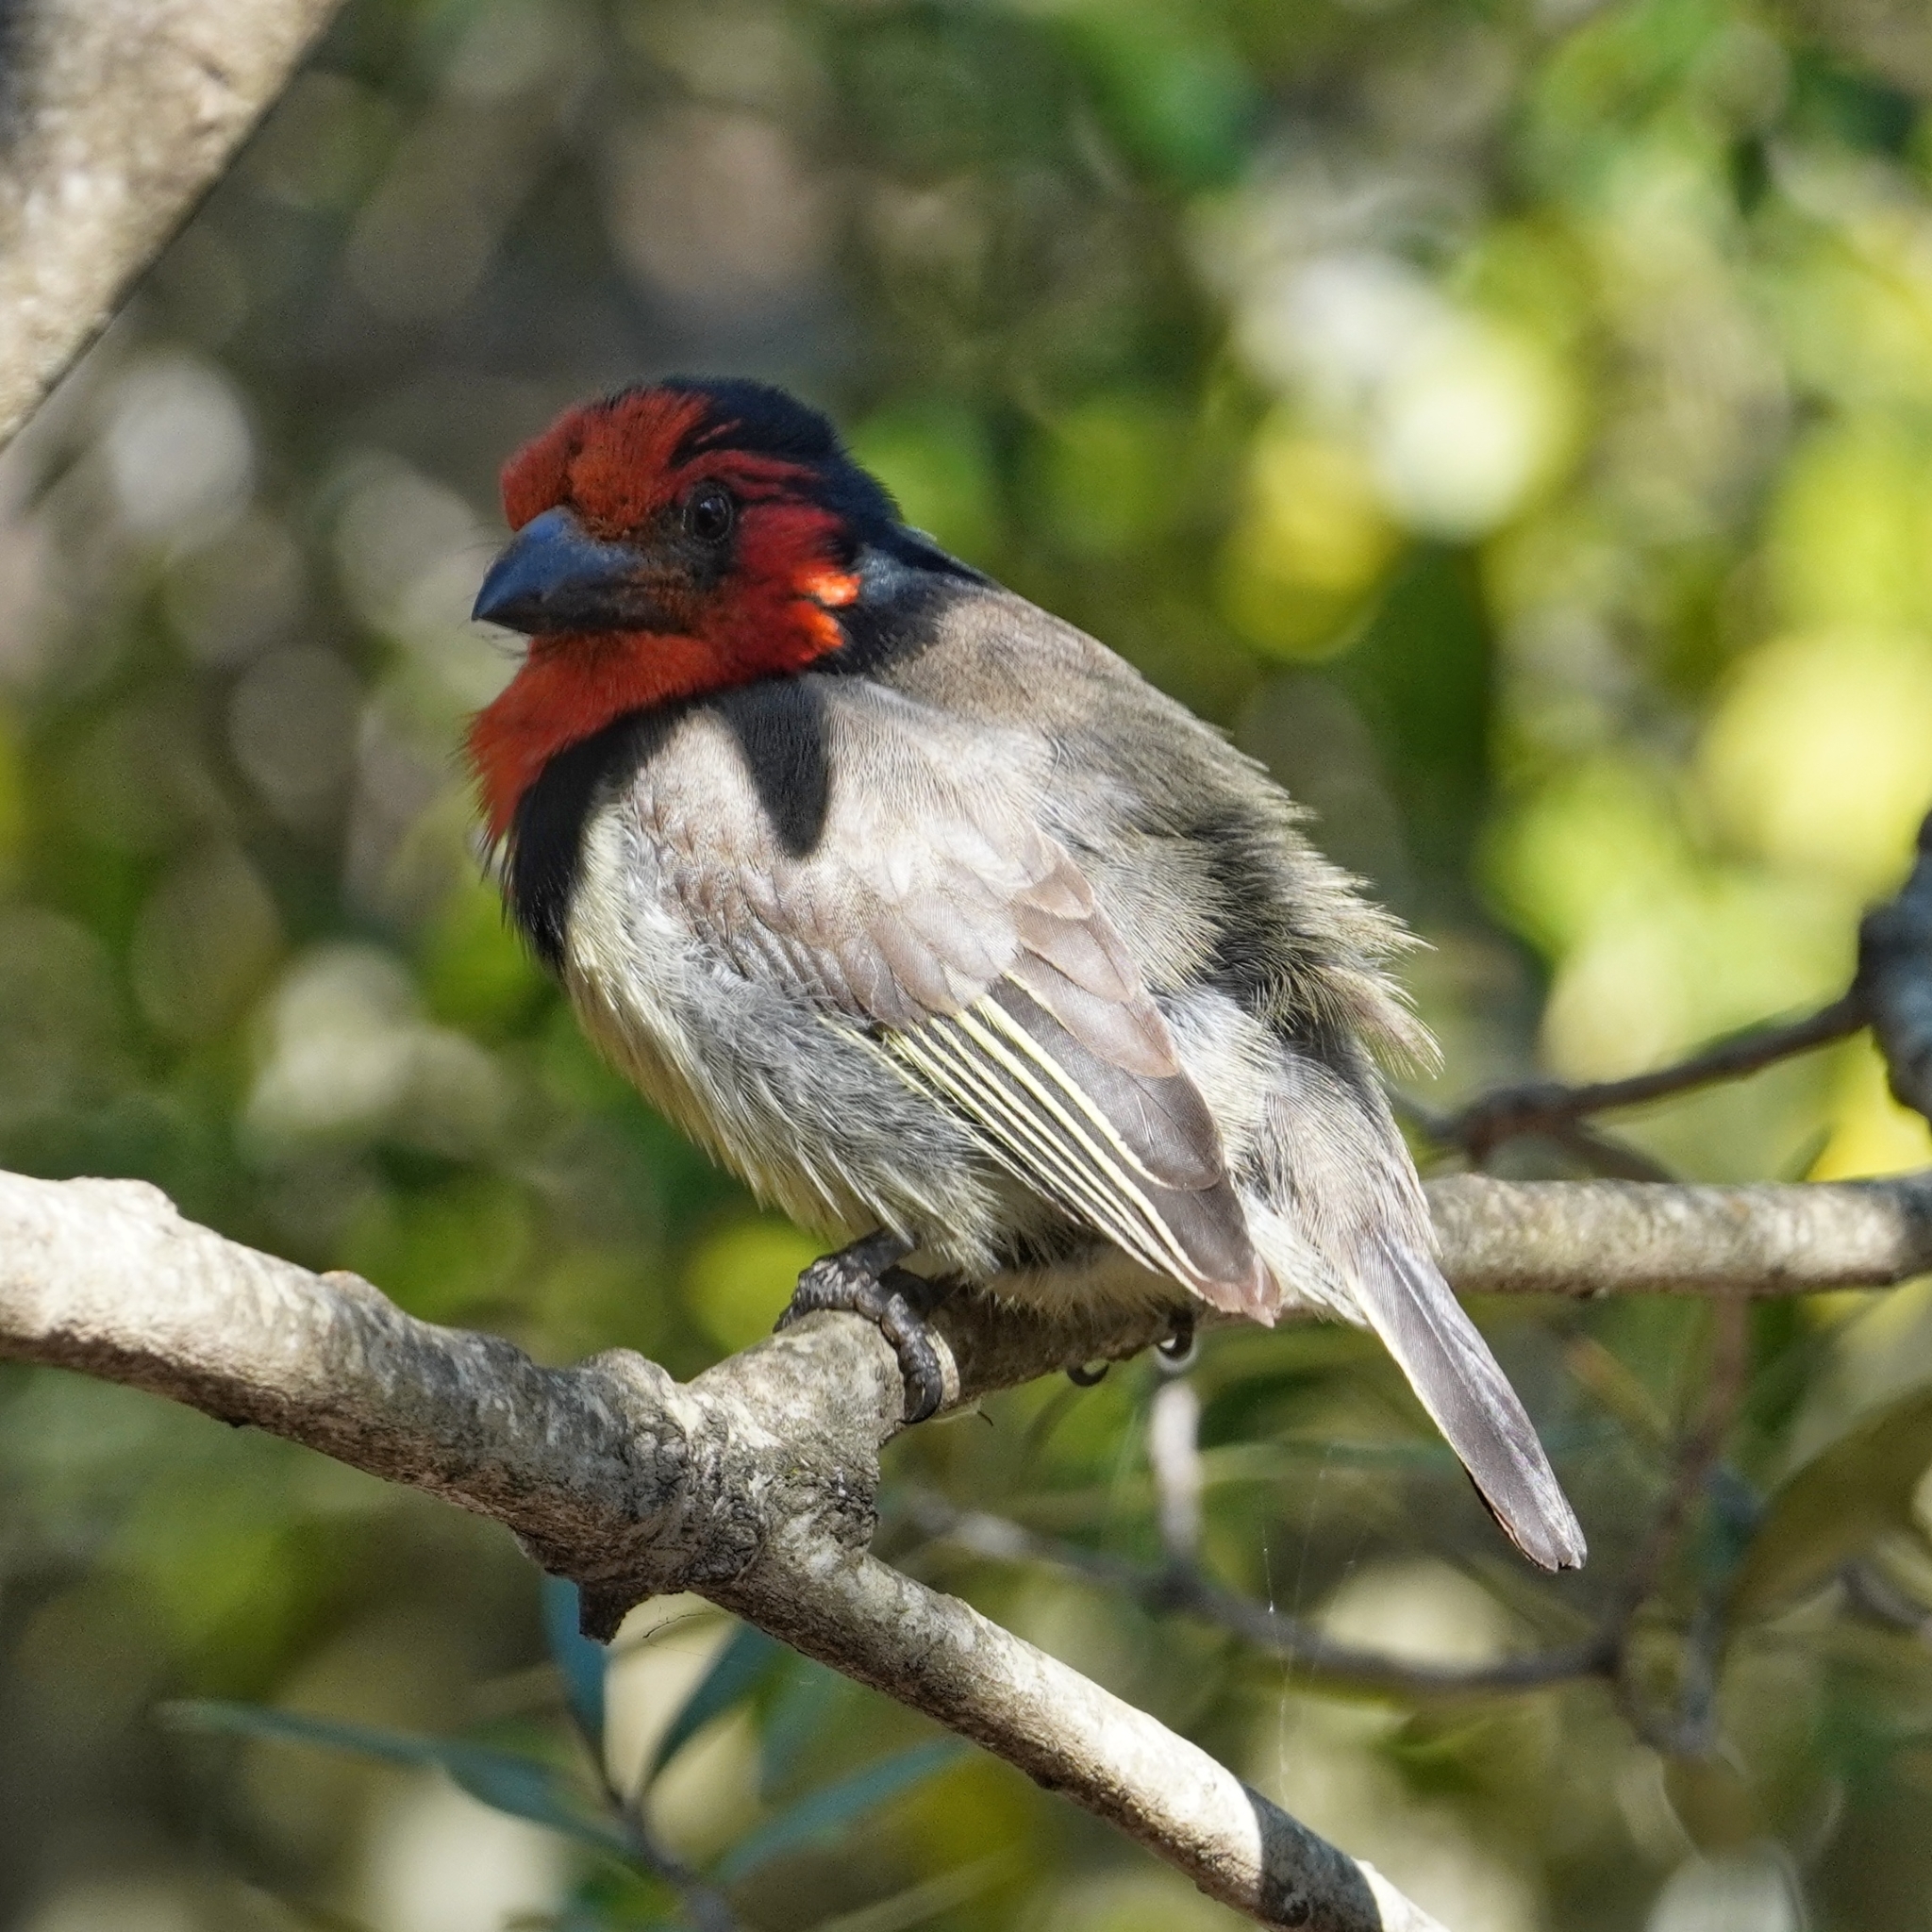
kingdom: Animalia
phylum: Chordata
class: Aves
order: Piciformes
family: Lybiidae
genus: Lybius
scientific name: Lybius torquatus
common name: Black-collared barbet
